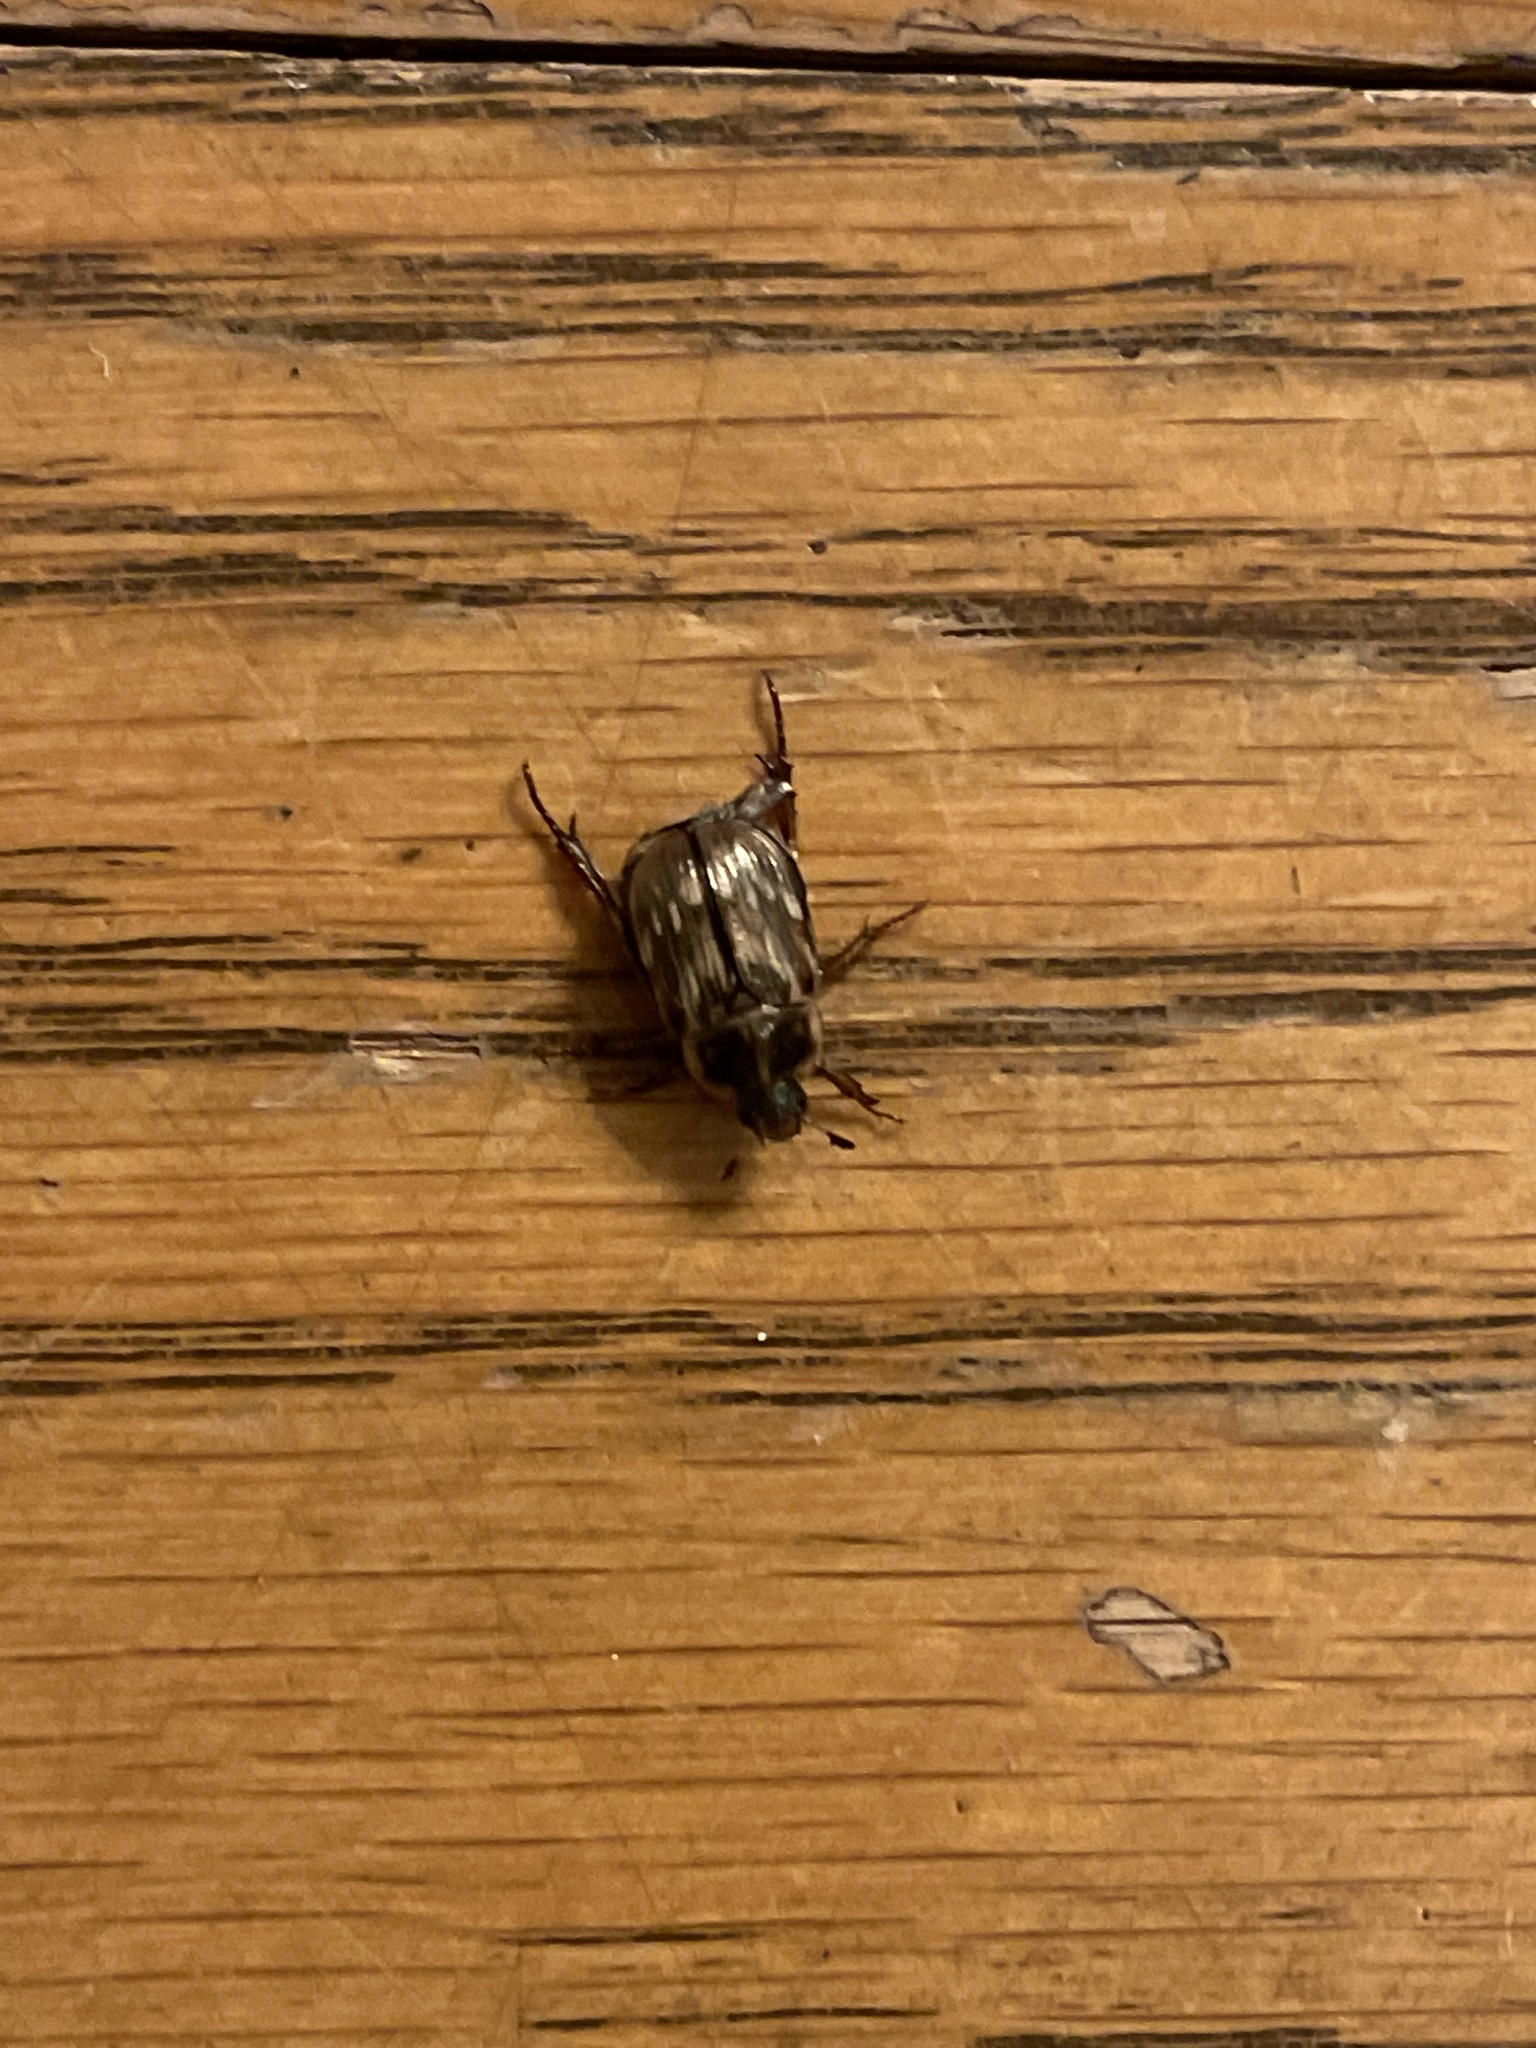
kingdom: Animalia
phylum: Arthropoda
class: Insecta
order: Coleoptera
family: Scarabaeidae
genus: Exomala
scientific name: Exomala orientalis
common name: Oriental beetle
